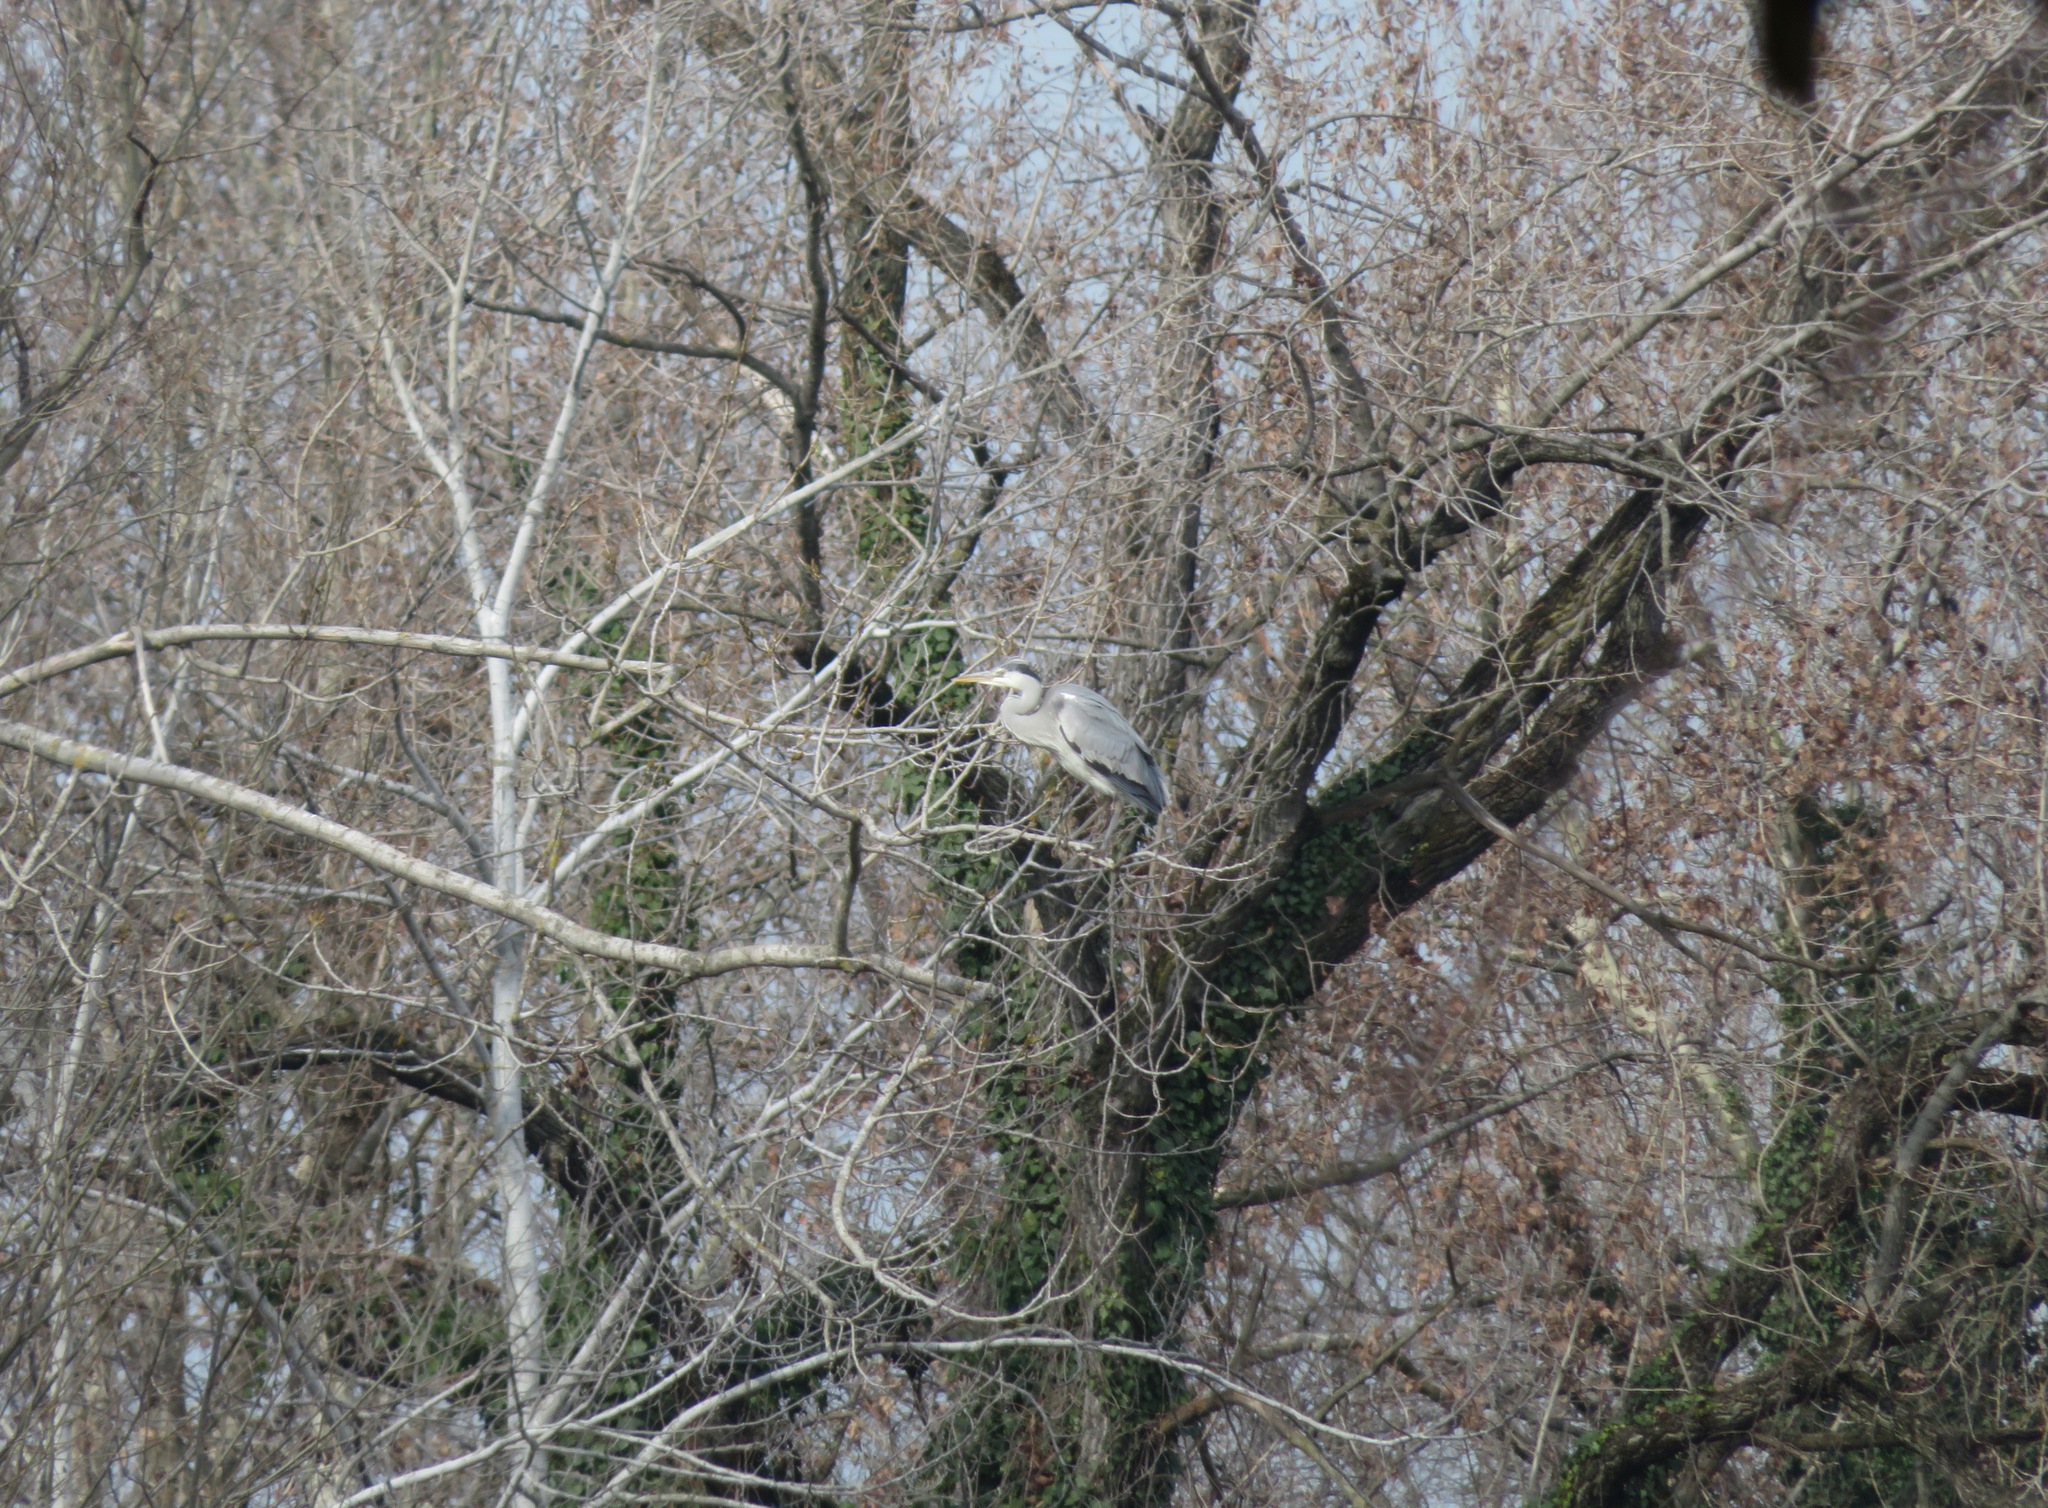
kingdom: Animalia
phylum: Chordata
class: Aves
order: Pelecaniformes
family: Ardeidae
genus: Ardea
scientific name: Ardea cinerea
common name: Grey heron
